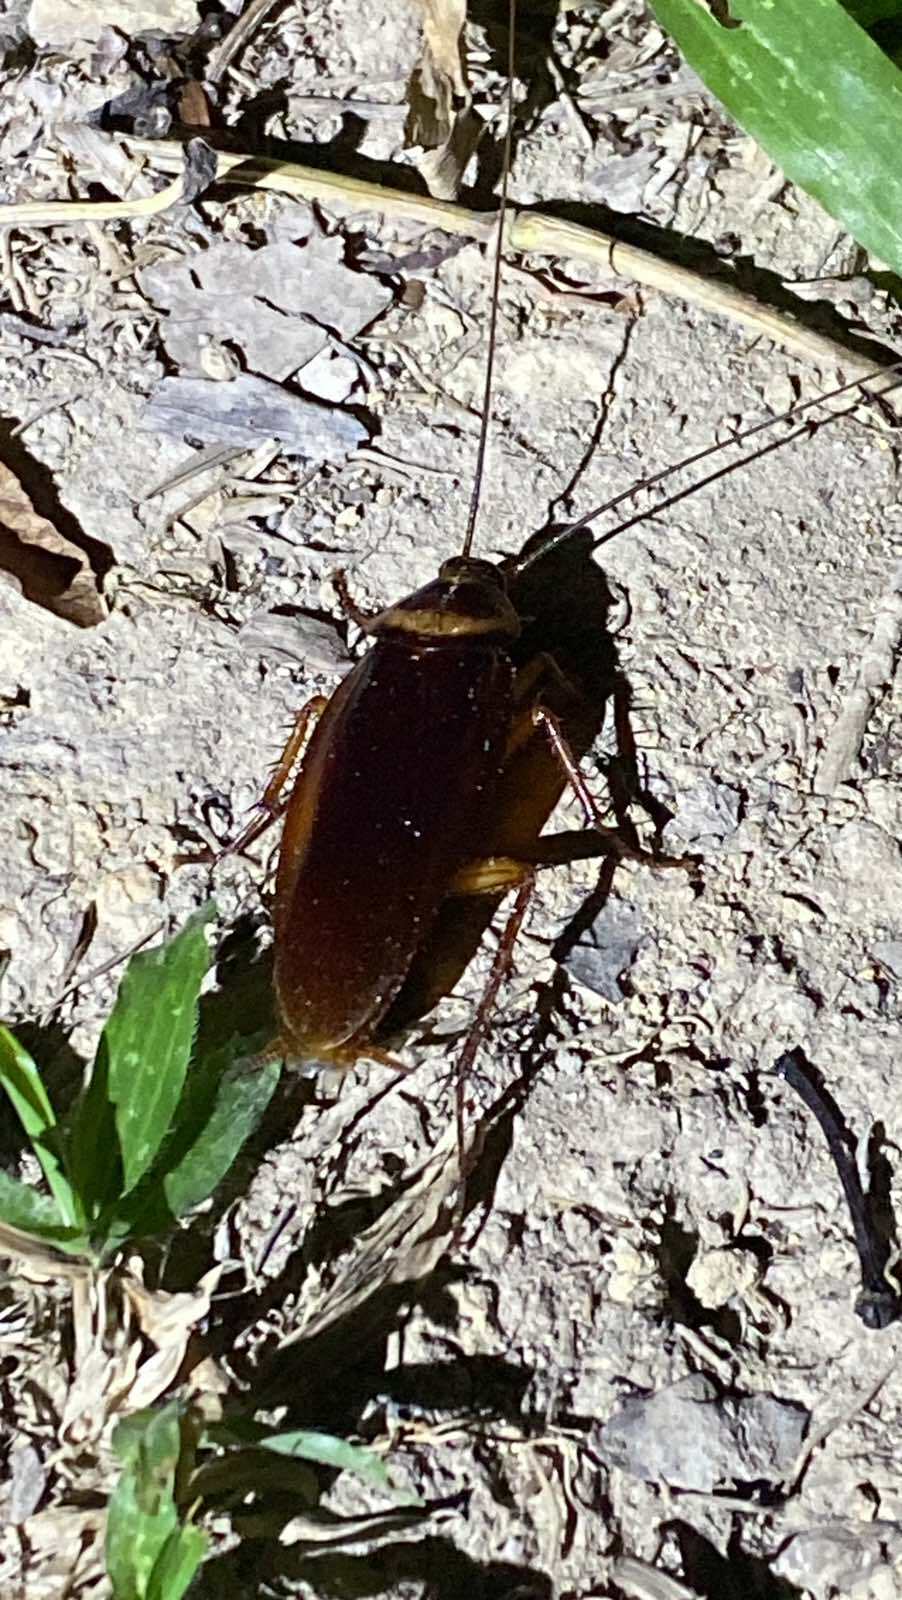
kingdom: Animalia
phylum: Arthropoda
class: Insecta
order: Blattodea
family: Blattidae
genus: Periplaneta
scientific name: Periplaneta americana
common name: American cockroach
